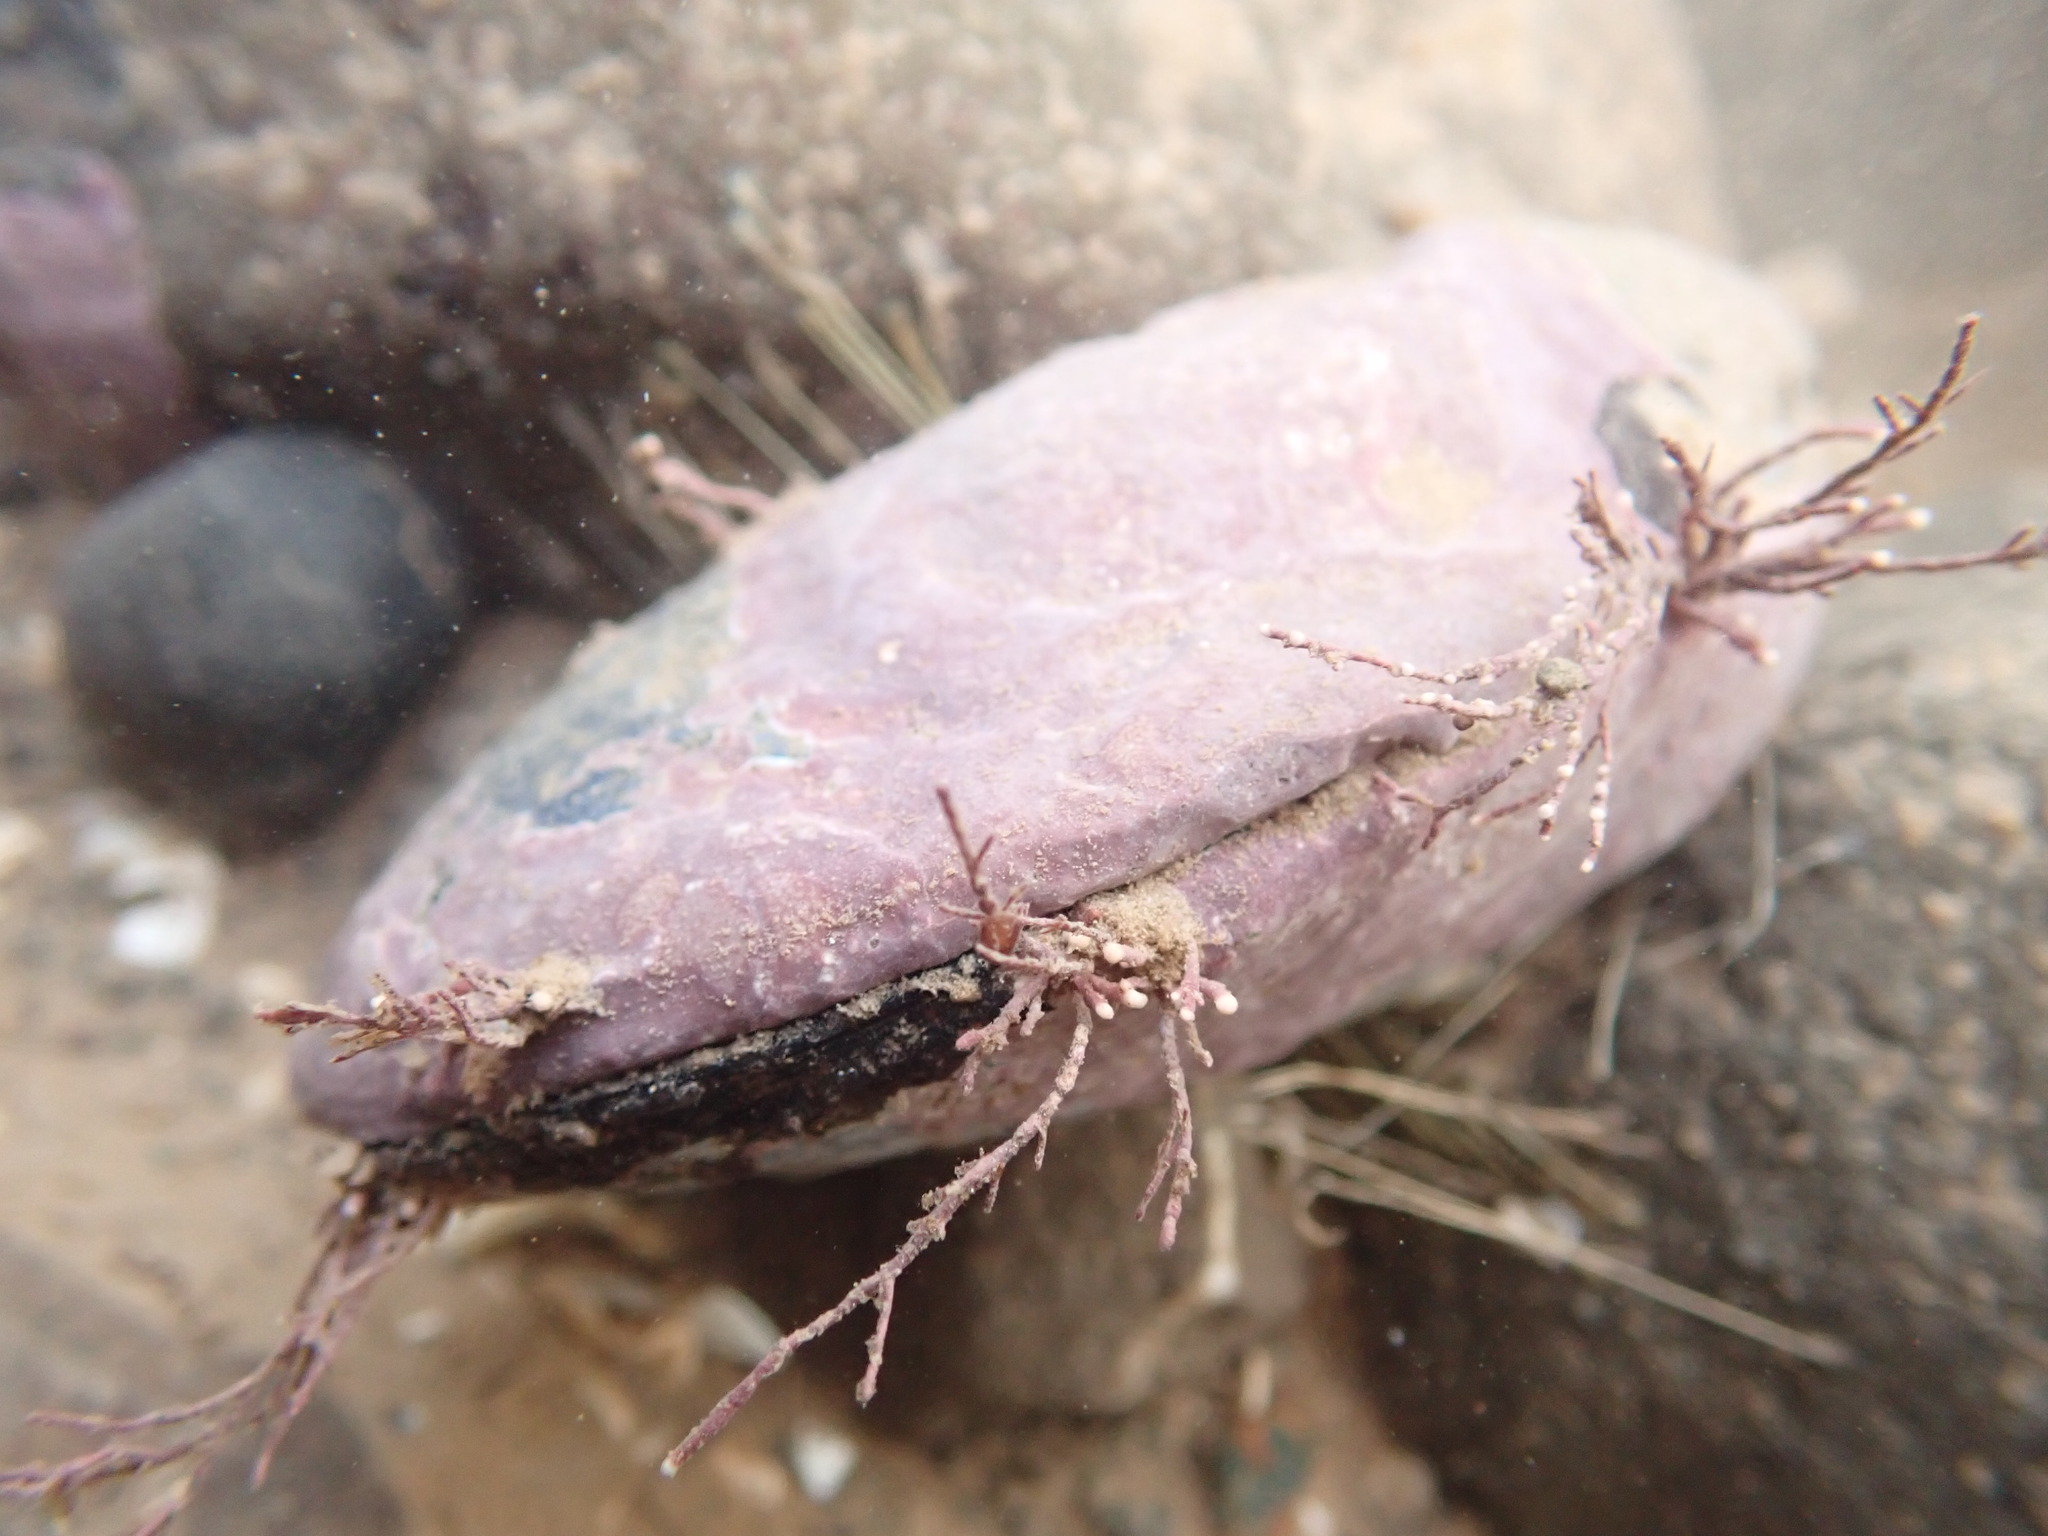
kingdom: Animalia
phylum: Mollusca
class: Bivalvia
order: Mytilida
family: Mytilidae
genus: Mytilus
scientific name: Mytilus edulis
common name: Blue mussel
